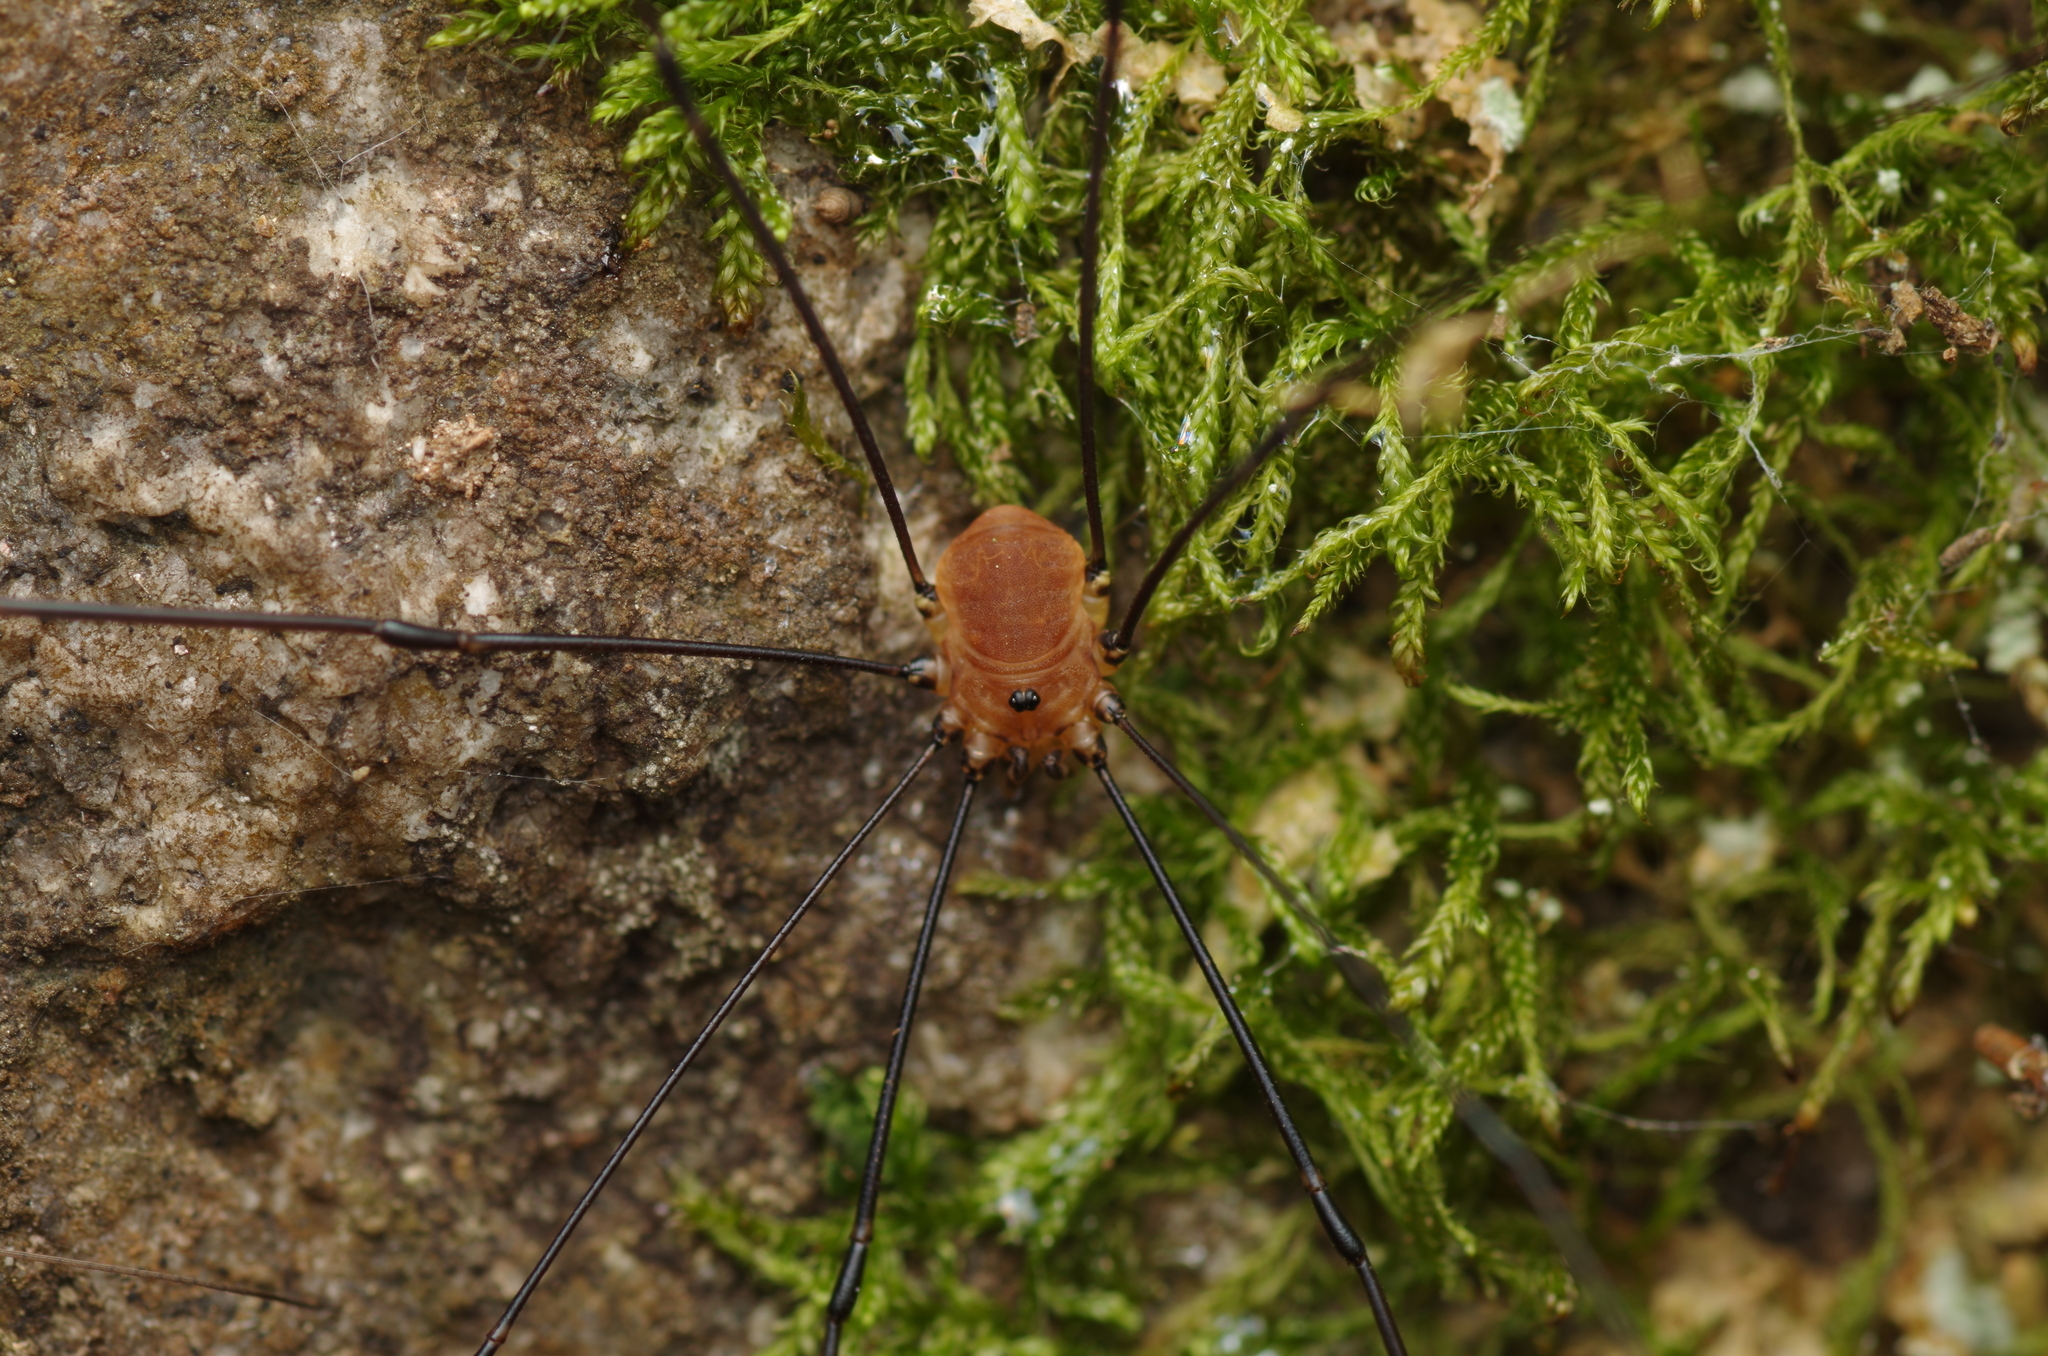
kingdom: Animalia
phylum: Arthropoda
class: Arachnida
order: Opiliones
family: Sclerosomatidae
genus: Leiobunum
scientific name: Leiobunum rotundum
